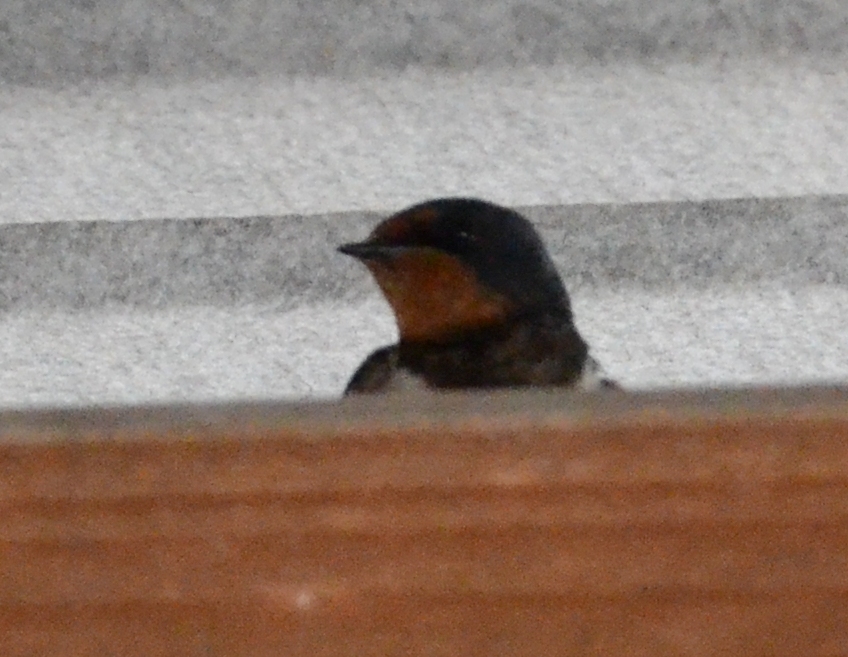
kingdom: Animalia
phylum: Chordata
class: Aves
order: Passeriformes
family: Hirundinidae
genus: Hirundo
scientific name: Hirundo rustica
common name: Barn swallow
